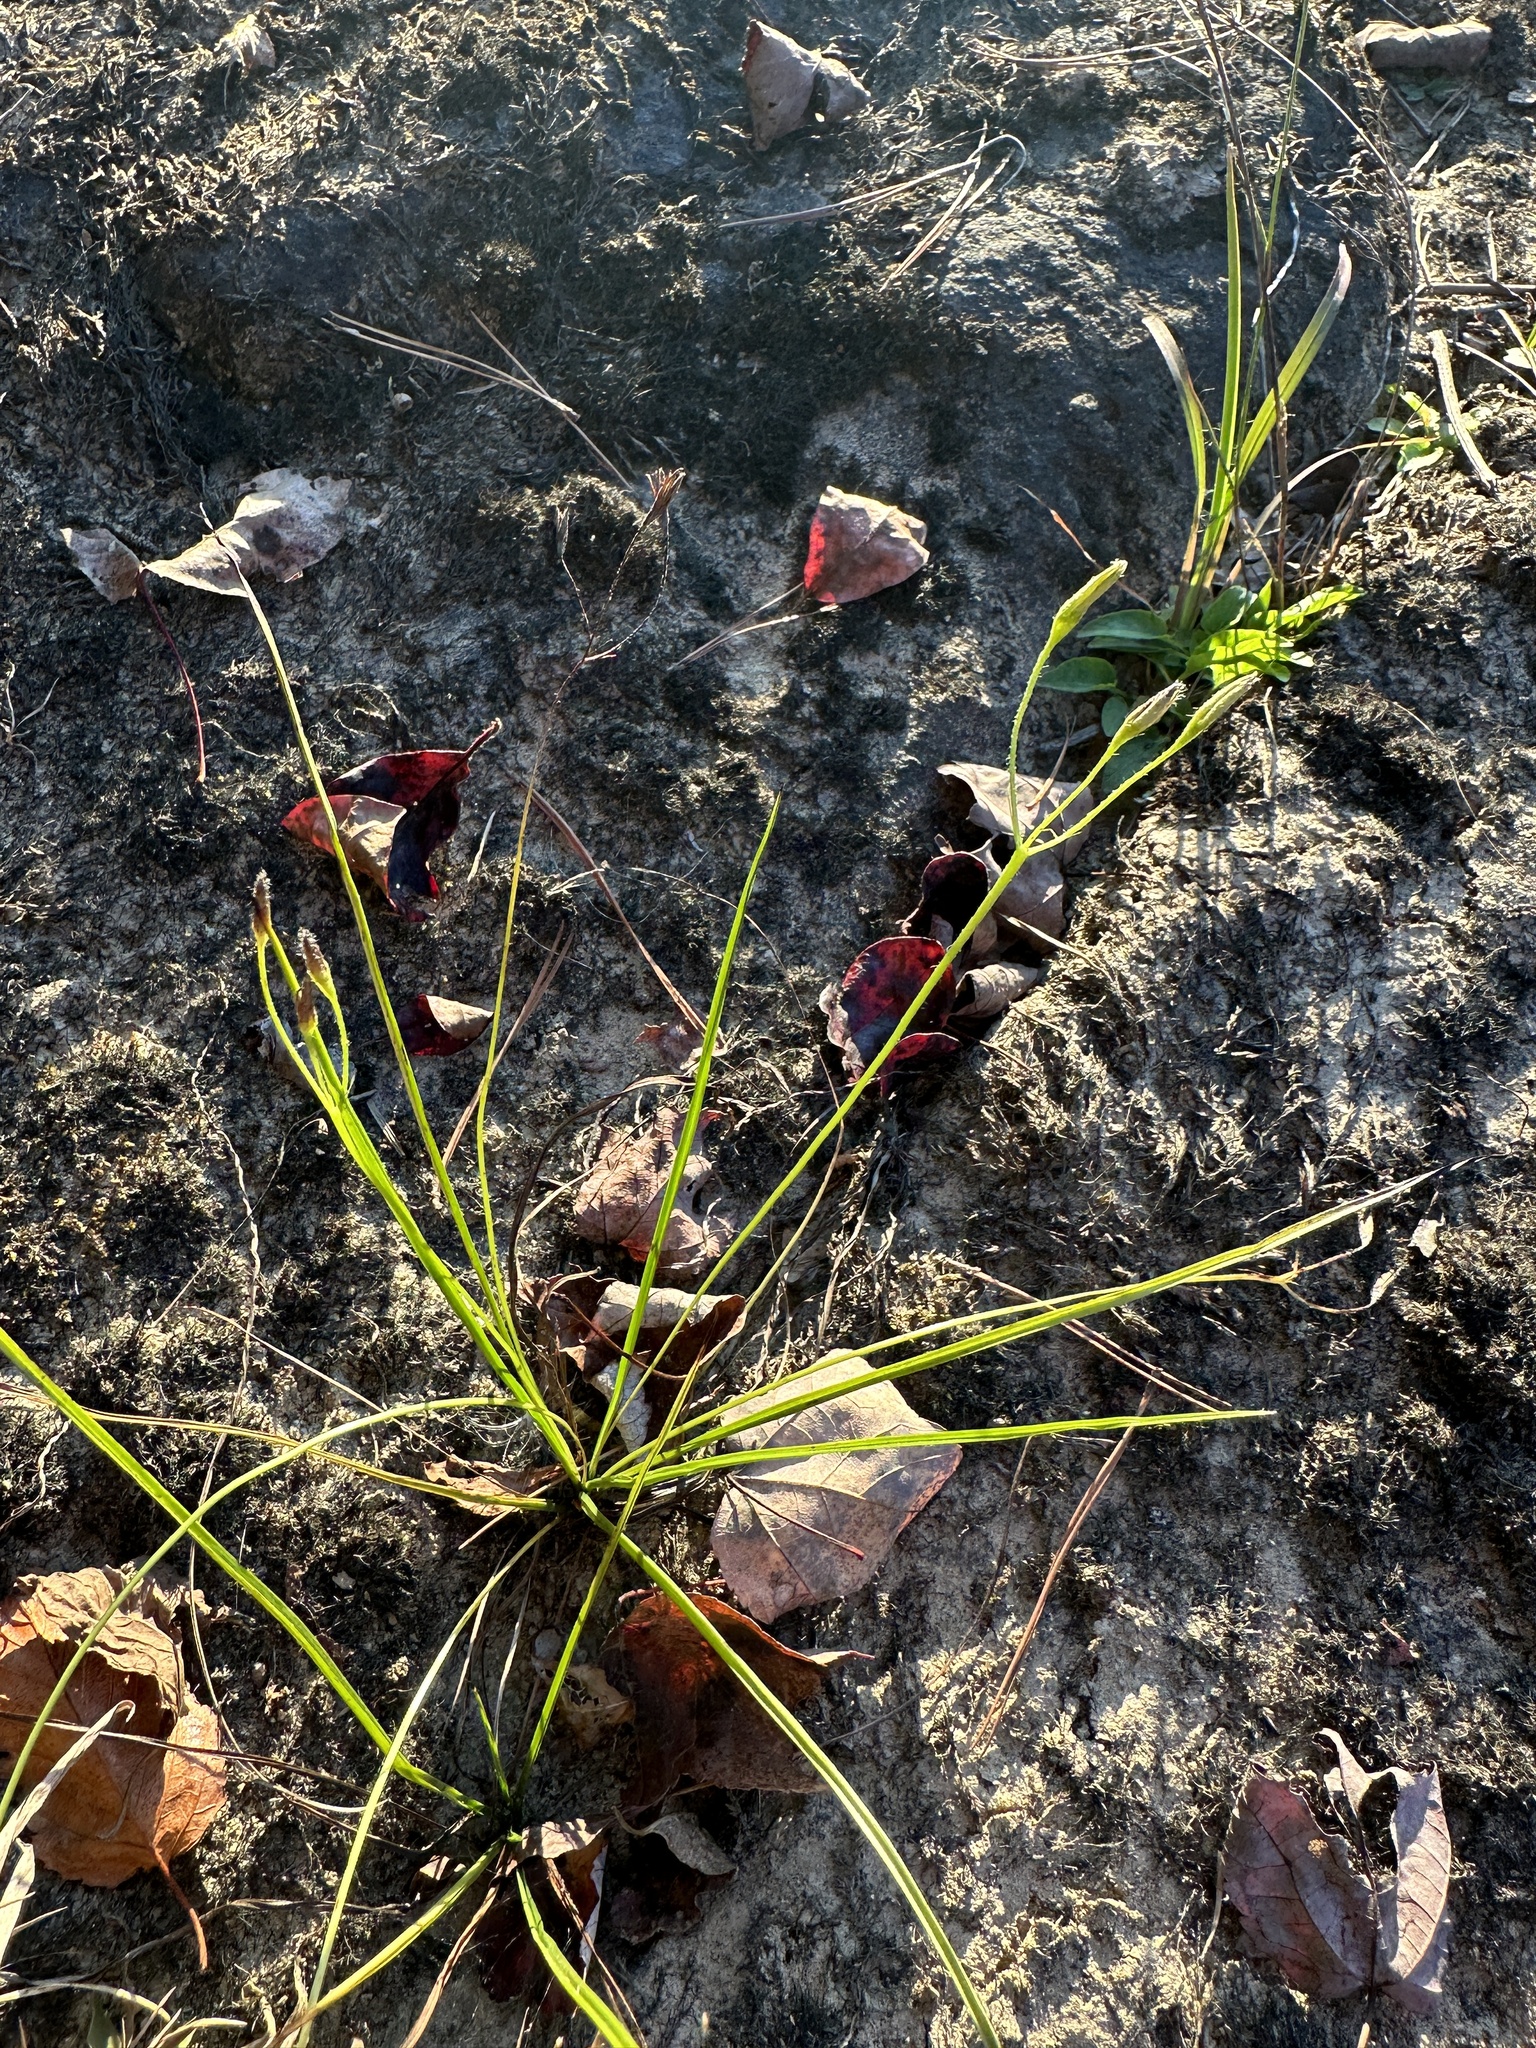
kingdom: Plantae
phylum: Tracheophyta
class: Liliopsida
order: Asparagales
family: Hypoxidaceae
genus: Hypoxis
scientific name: Hypoxis hirsuta
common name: Common goldstar
